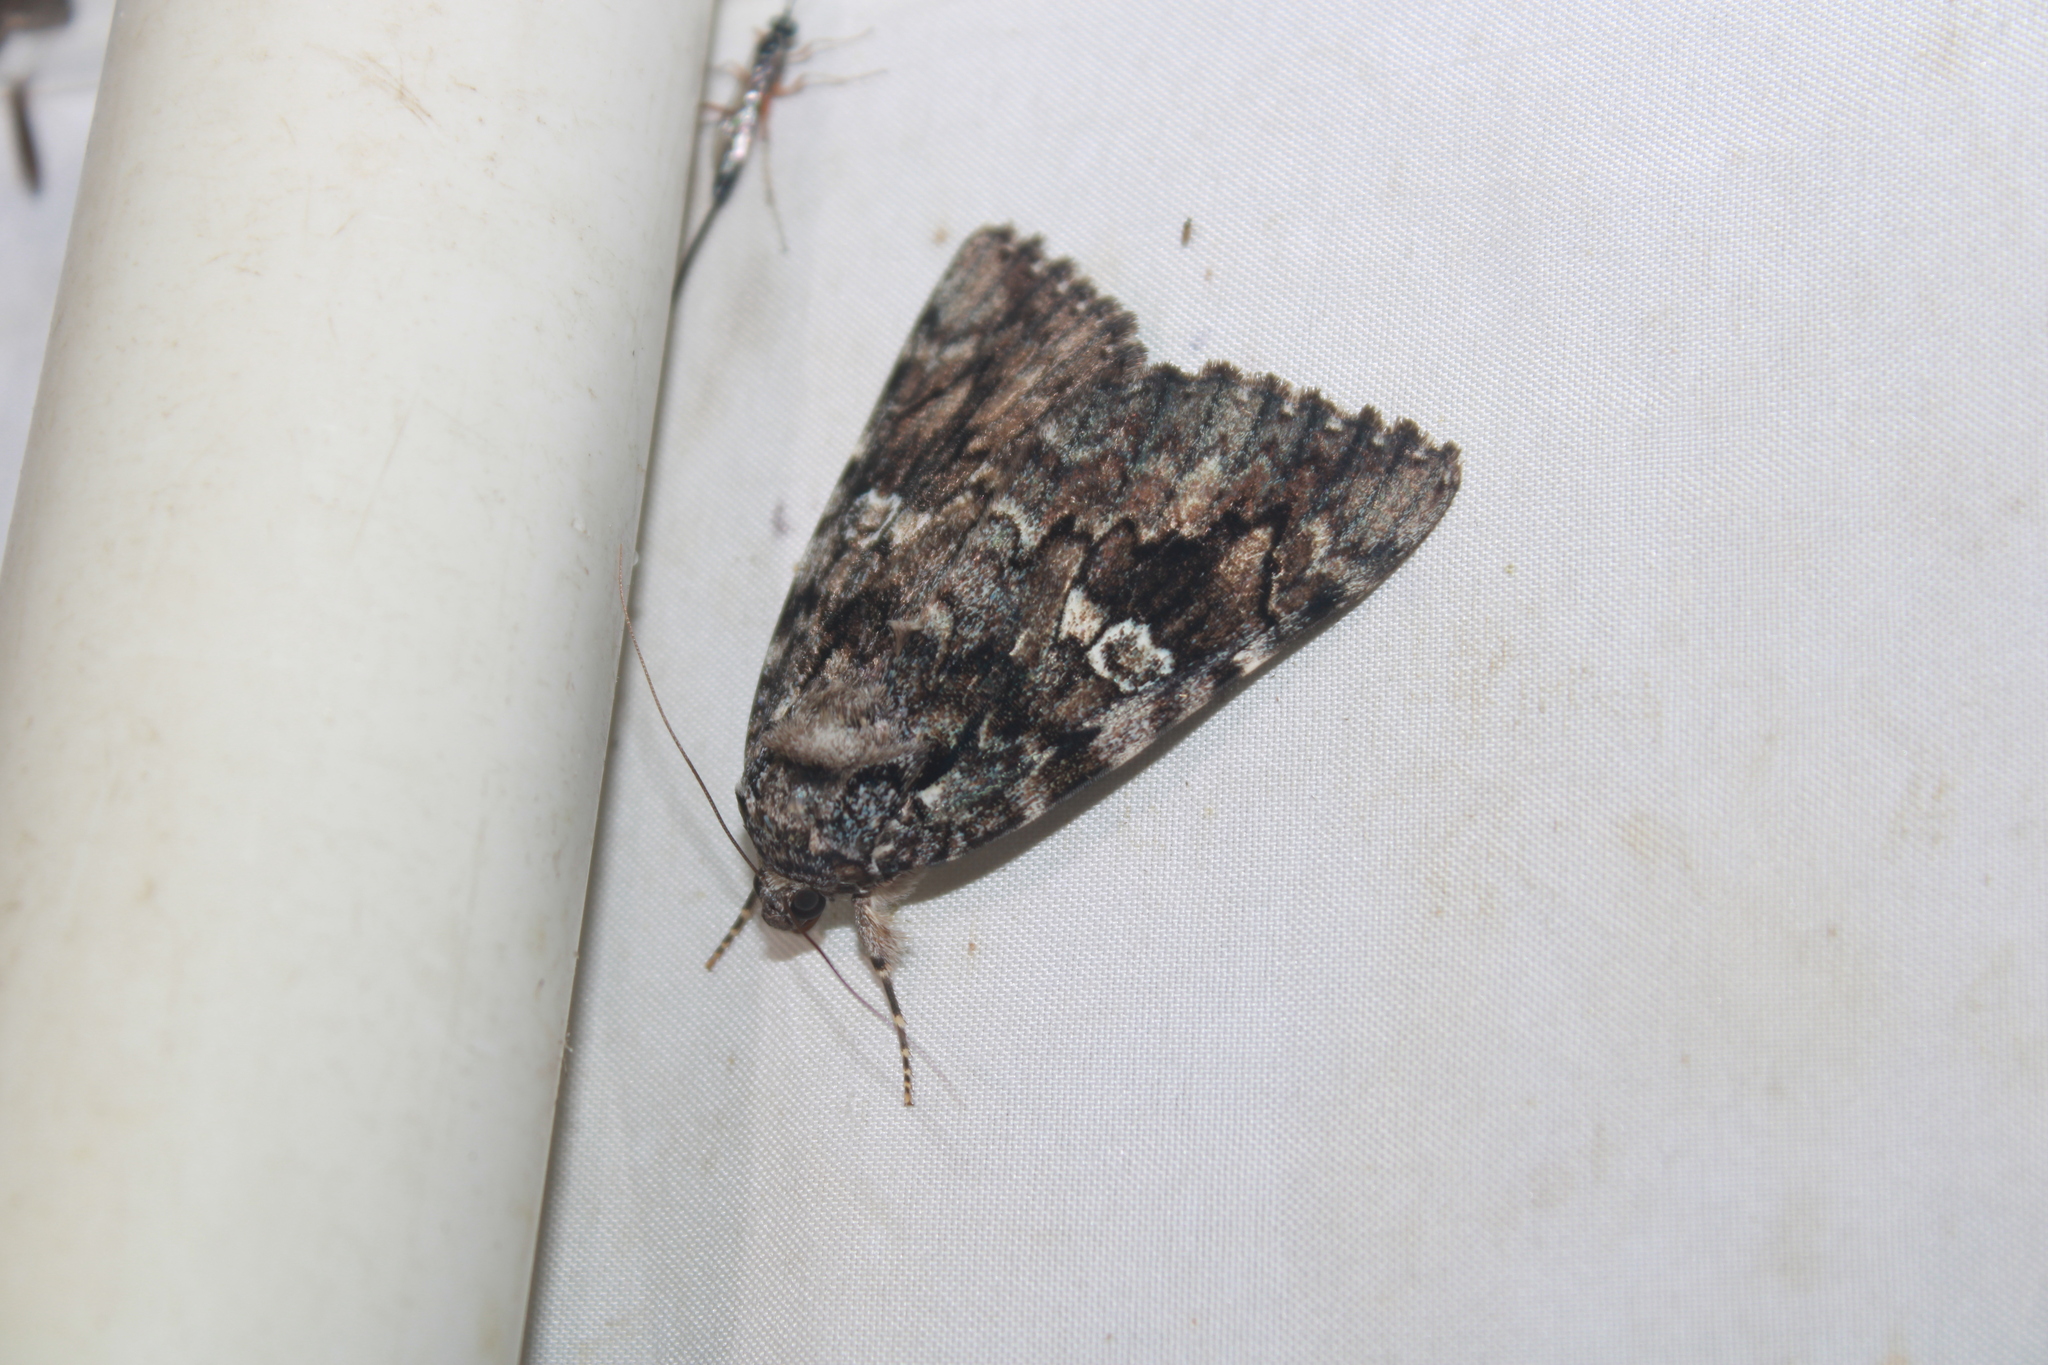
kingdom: Animalia
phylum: Arthropoda
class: Insecta
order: Lepidoptera
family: Erebidae
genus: Catocala
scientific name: Catocala ilia
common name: Ilia underwing
